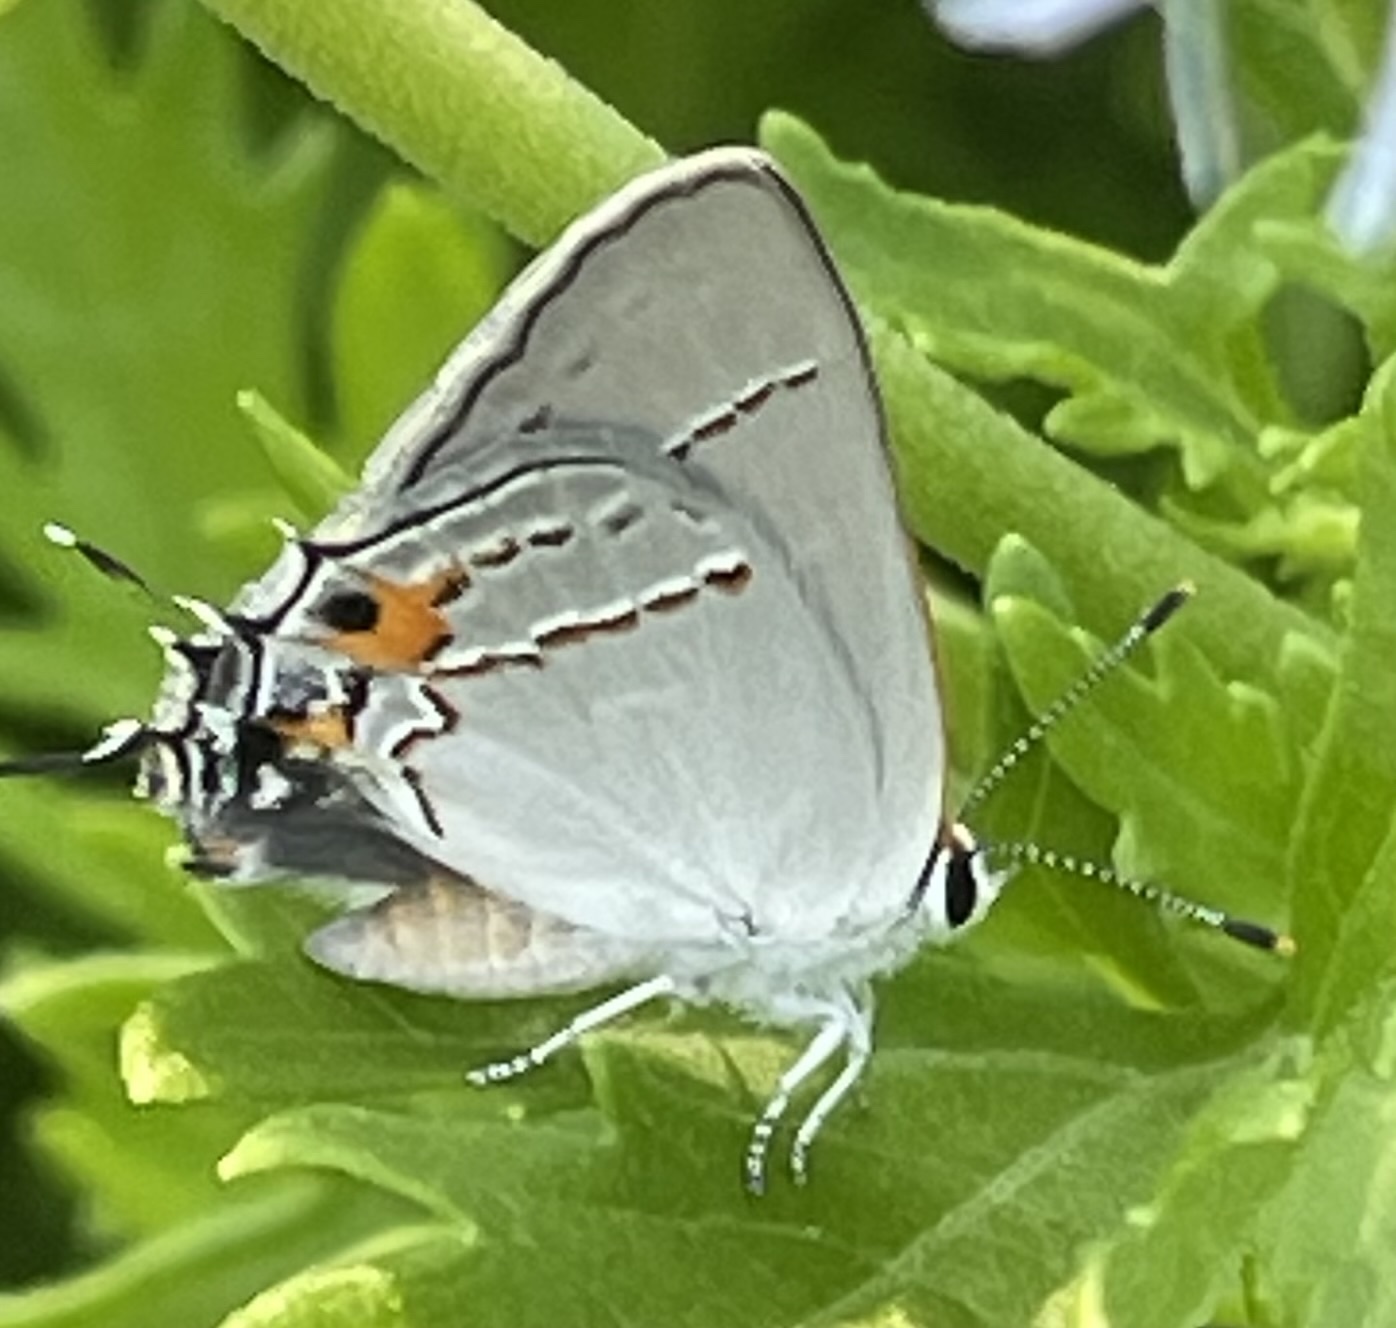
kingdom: Animalia
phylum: Arthropoda
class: Insecta
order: Lepidoptera
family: Lycaenidae
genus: Strymon
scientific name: Strymon melinus
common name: Gray hairstreak
